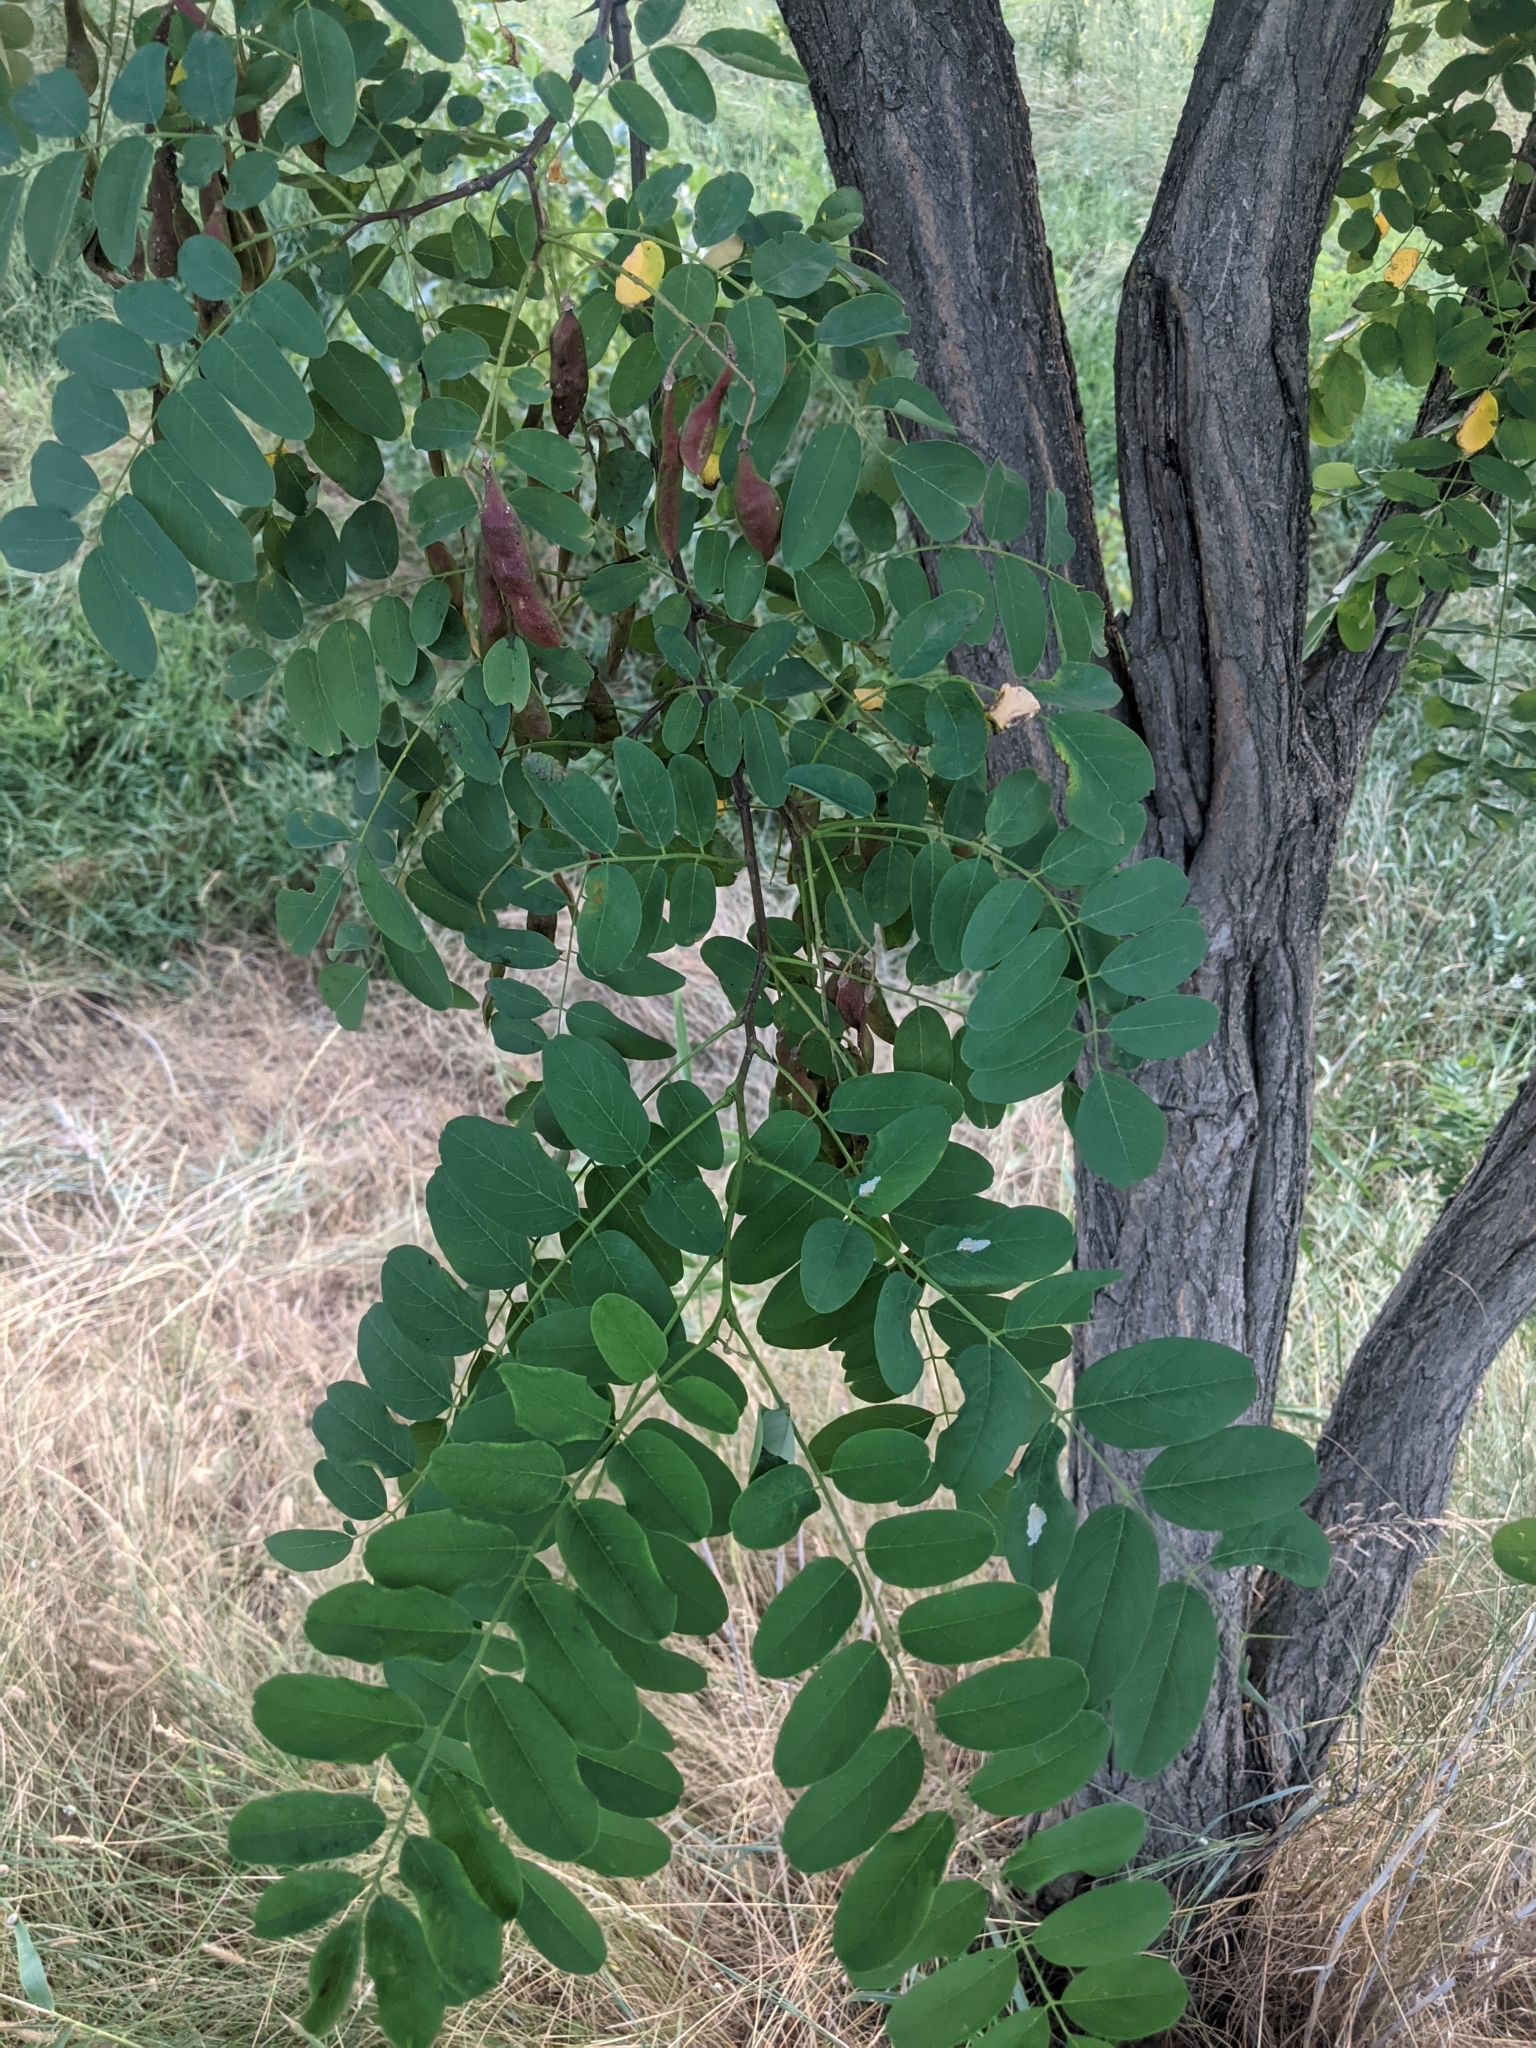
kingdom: Plantae
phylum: Tracheophyta
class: Magnoliopsida
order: Fabales
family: Fabaceae
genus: Robinia
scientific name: Robinia pseudoacacia
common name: Black locust
